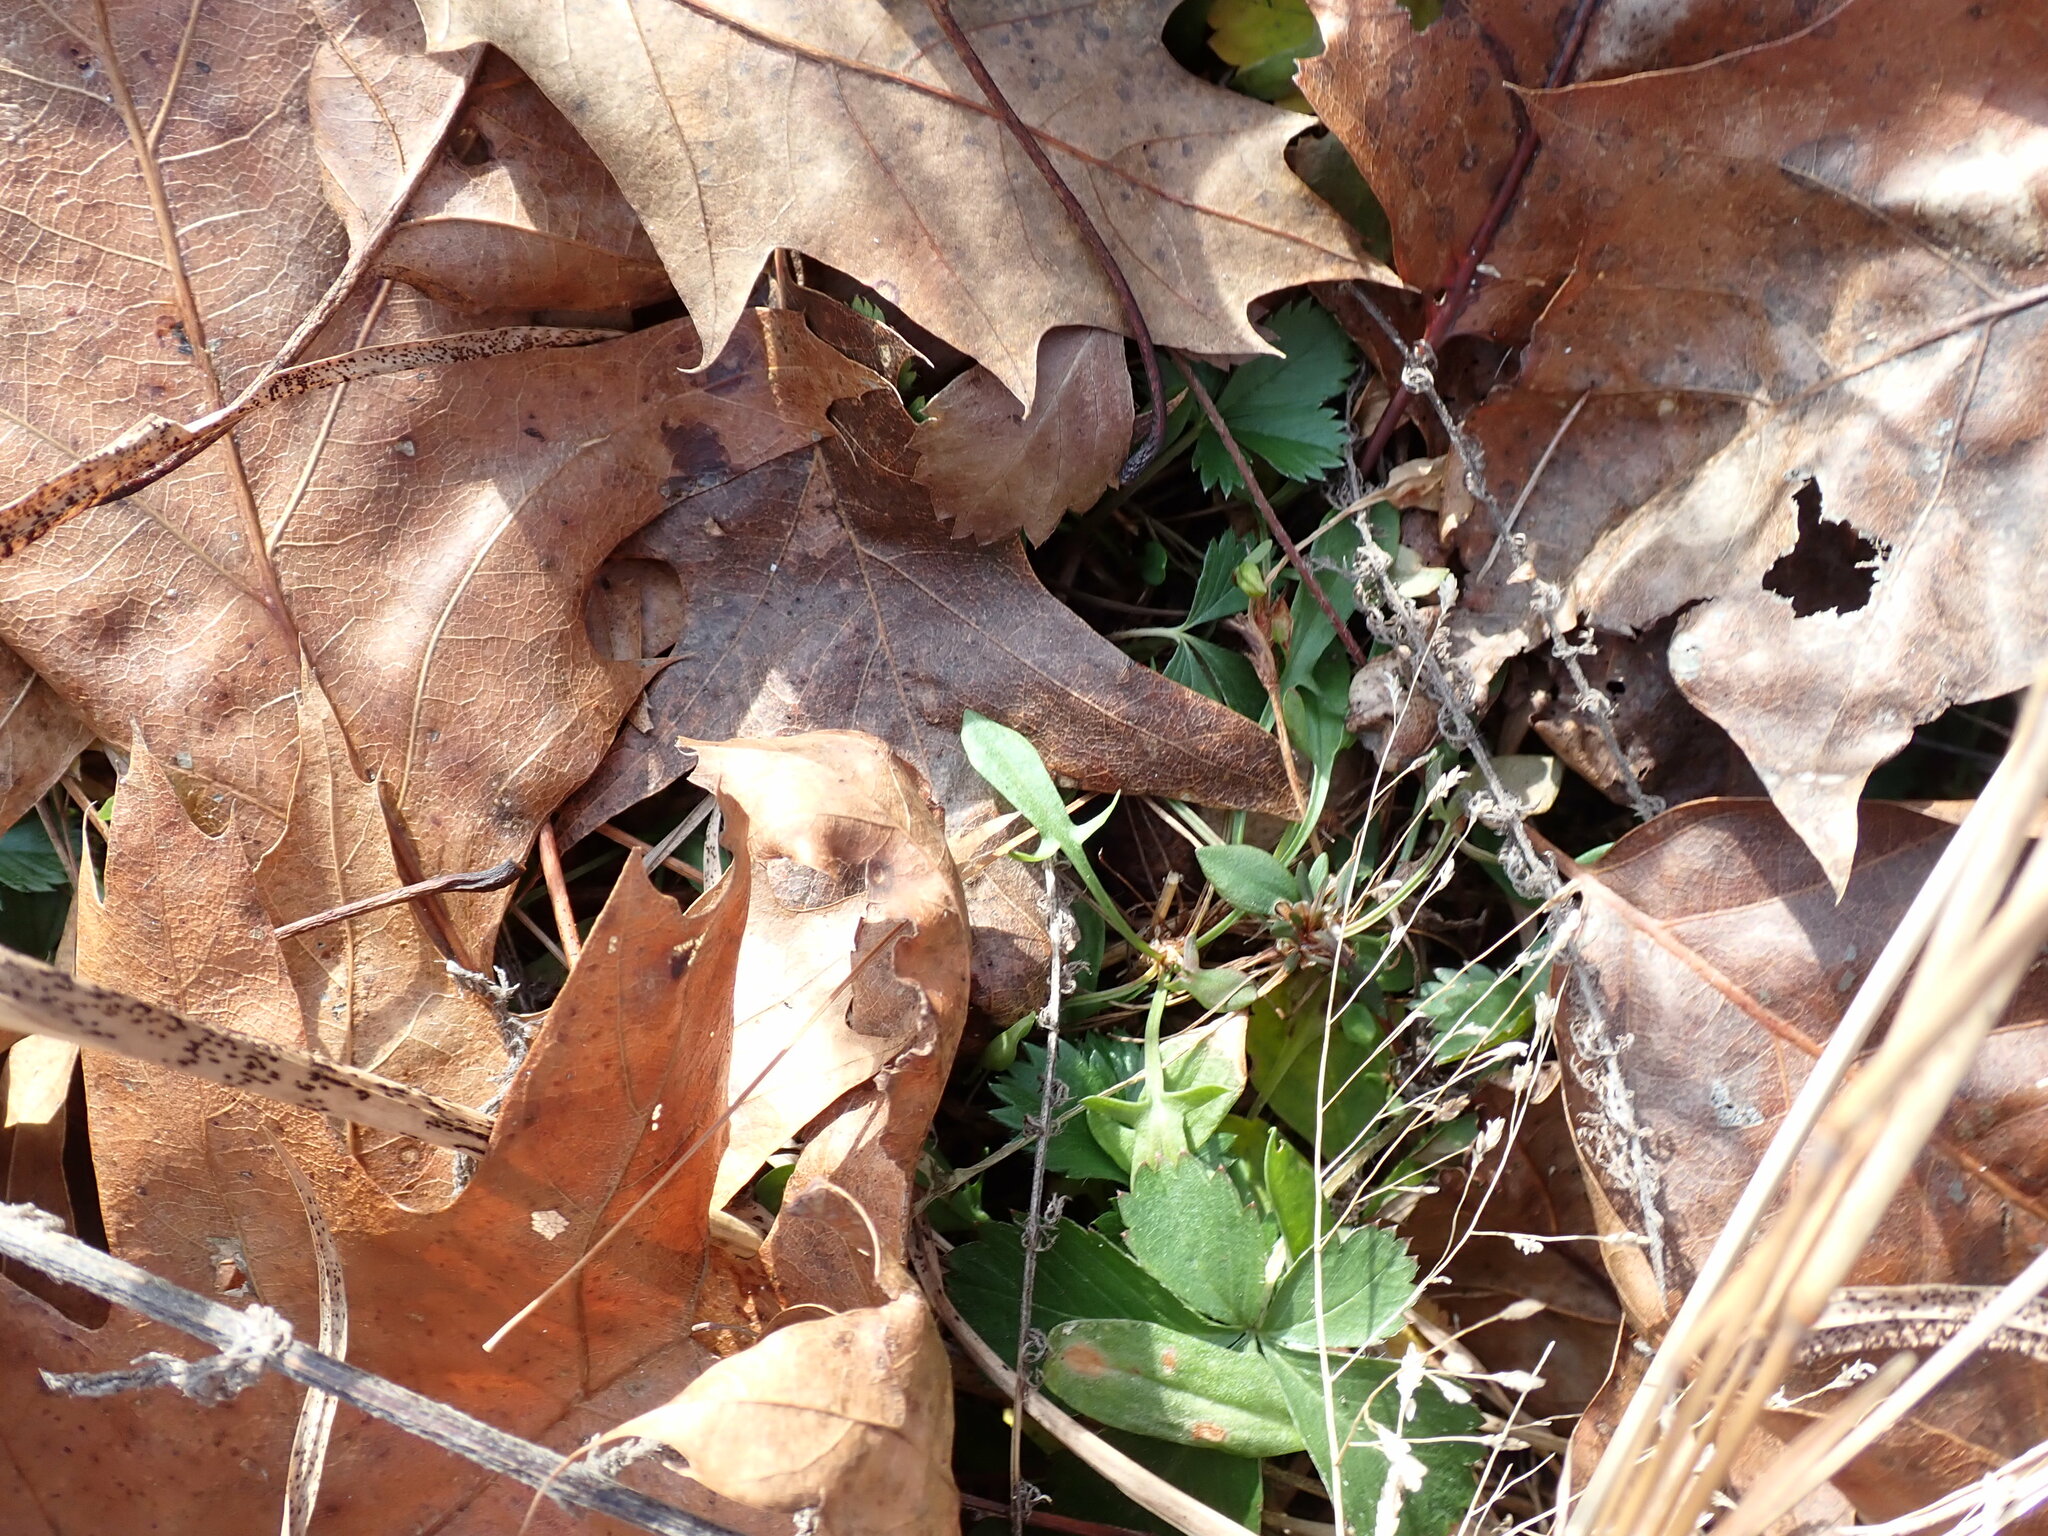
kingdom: Plantae
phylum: Tracheophyta
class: Magnoliopsida
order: Caryophyllales
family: Polygonaceae
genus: Rumex
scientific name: Rumex acetosella
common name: Common sheep sorrel
